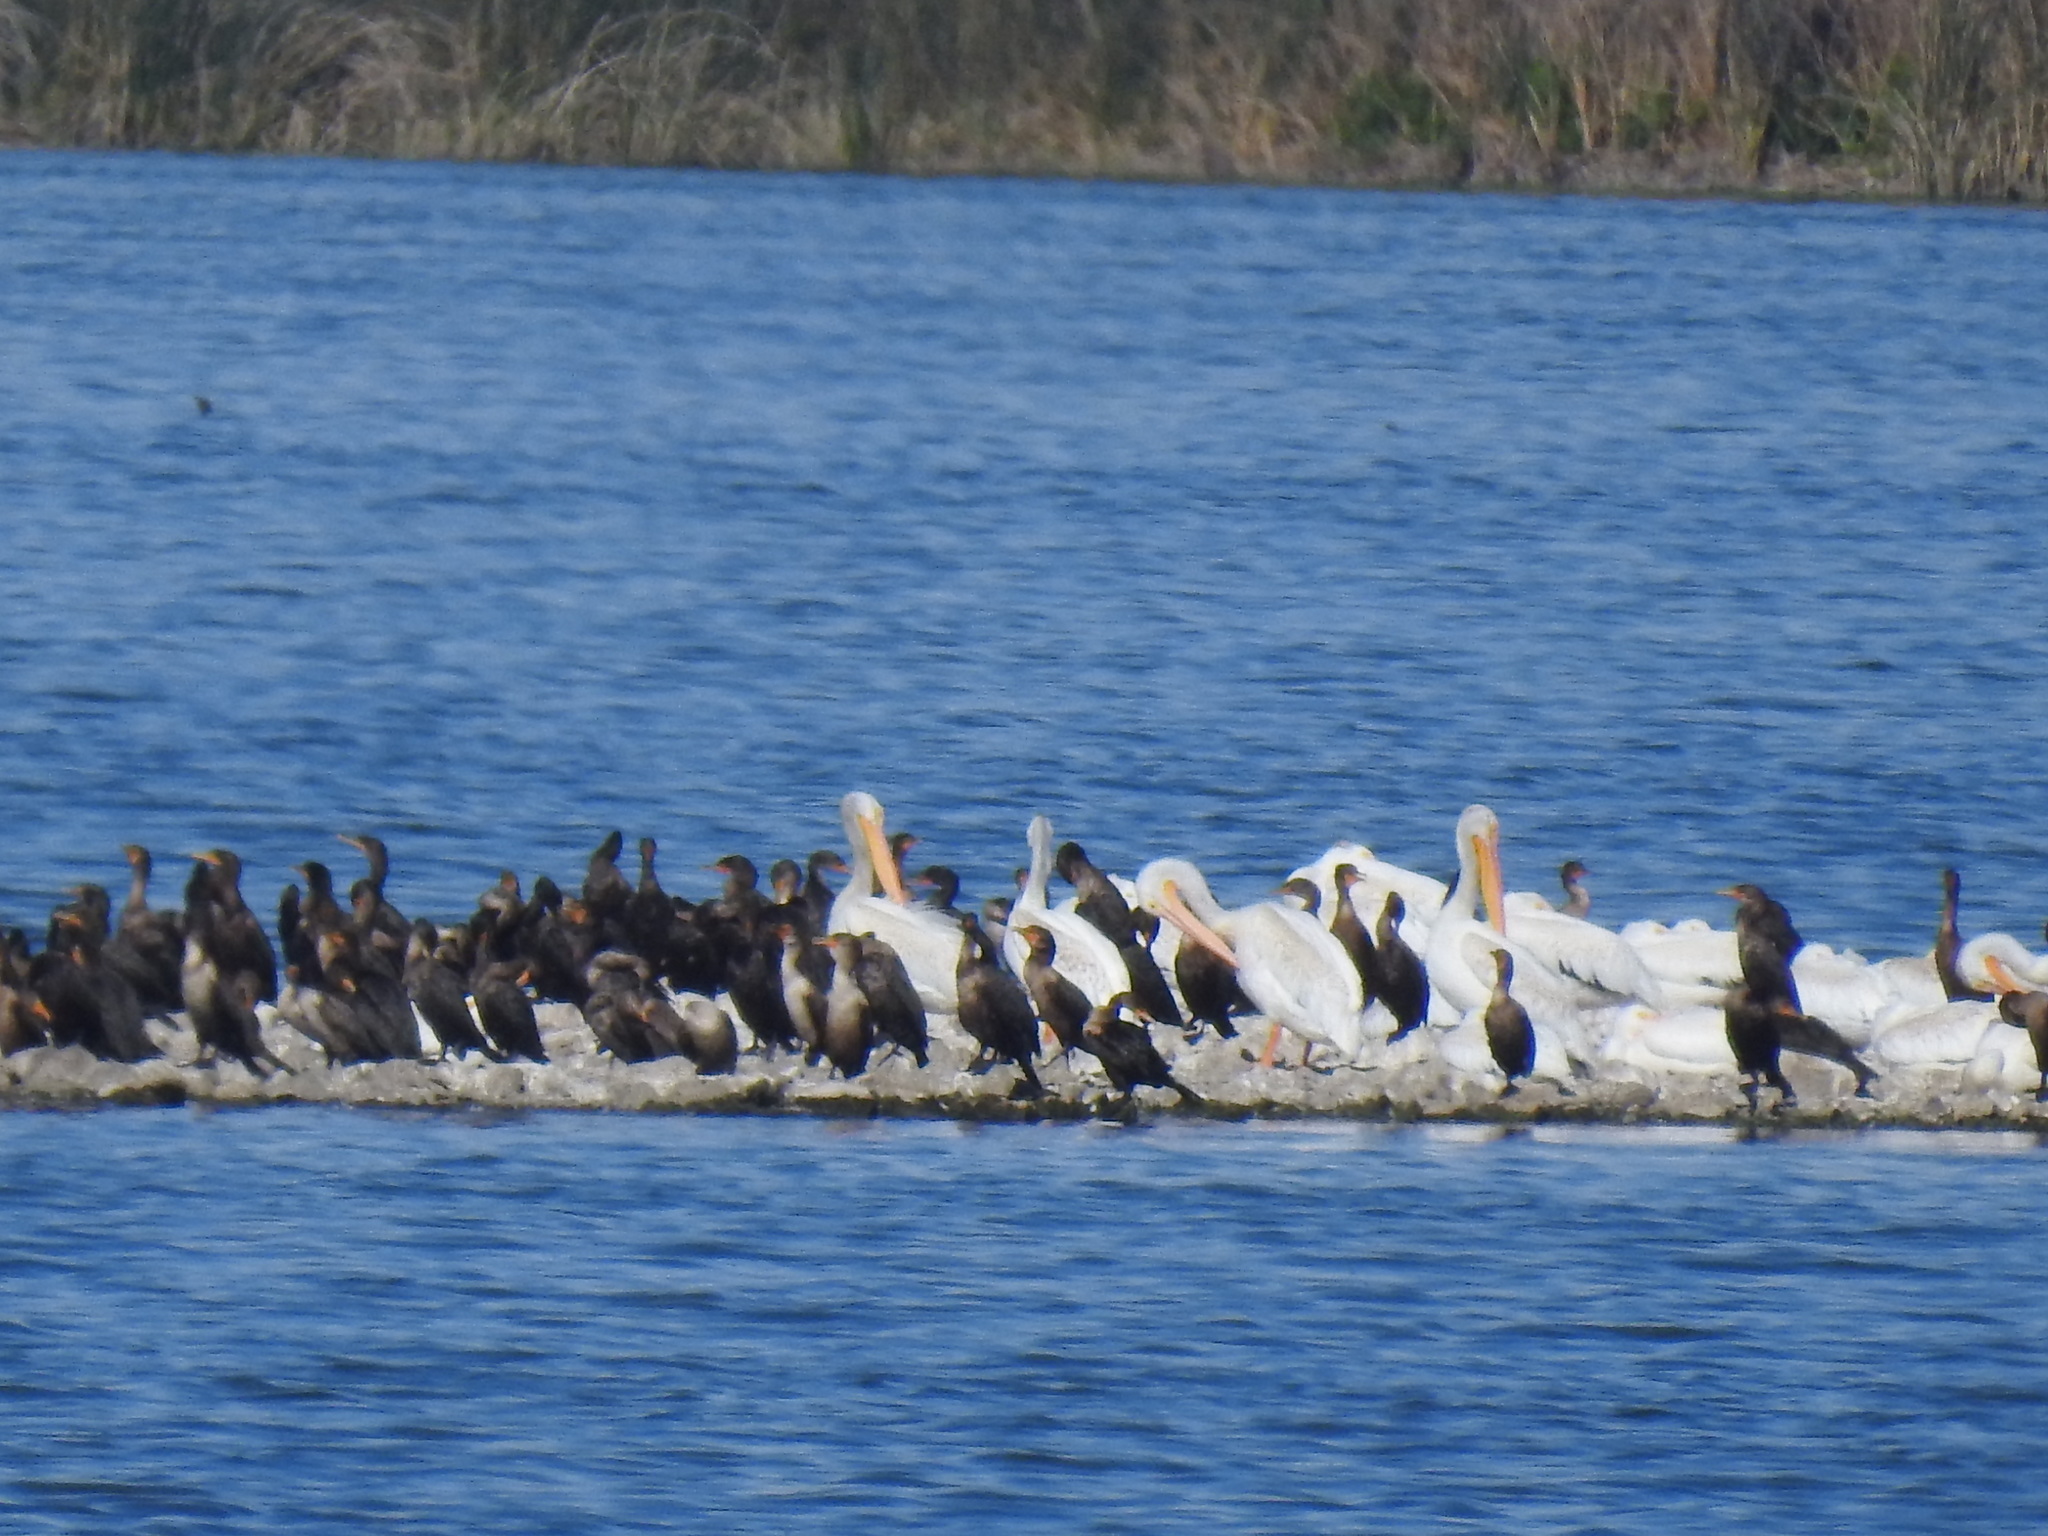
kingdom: Animalia
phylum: Chordata
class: Aves
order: Pelecaniformes
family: Pelecanidae
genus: Pelecanus
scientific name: Pelecanus erythrorhynchos
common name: American white pelican
